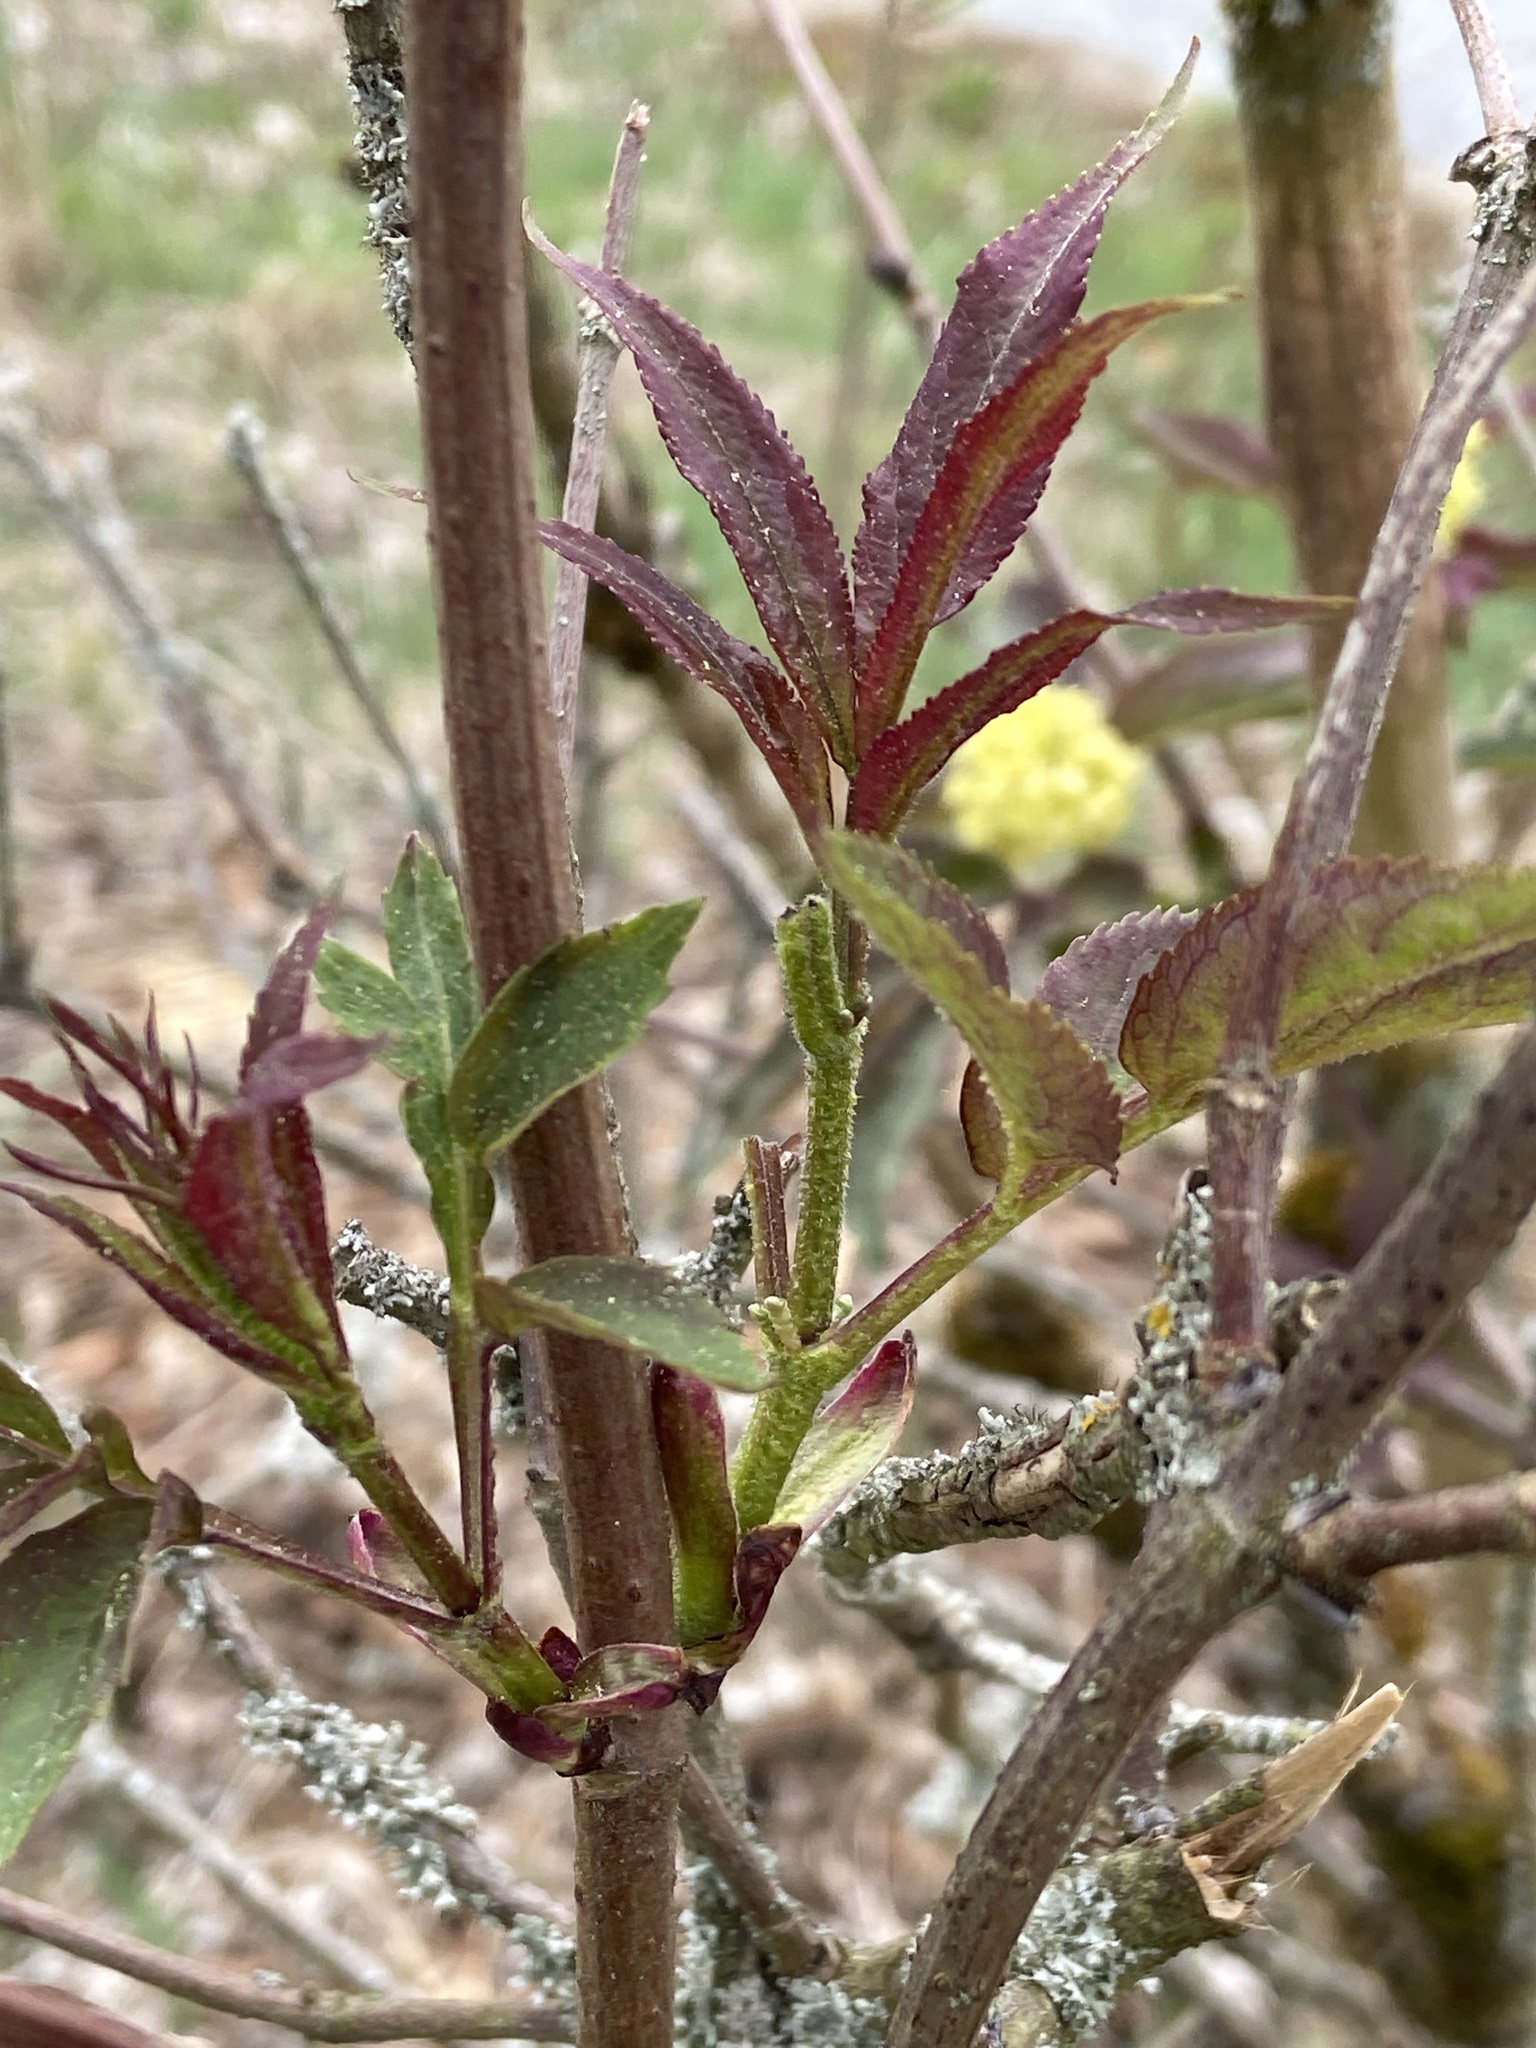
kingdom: Plantae
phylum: Tracheophyta
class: Magnoliopsida
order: Dipsacales
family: Viburnaceae
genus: Sambucus
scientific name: Sambucus racemosa
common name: Red-berried elder
